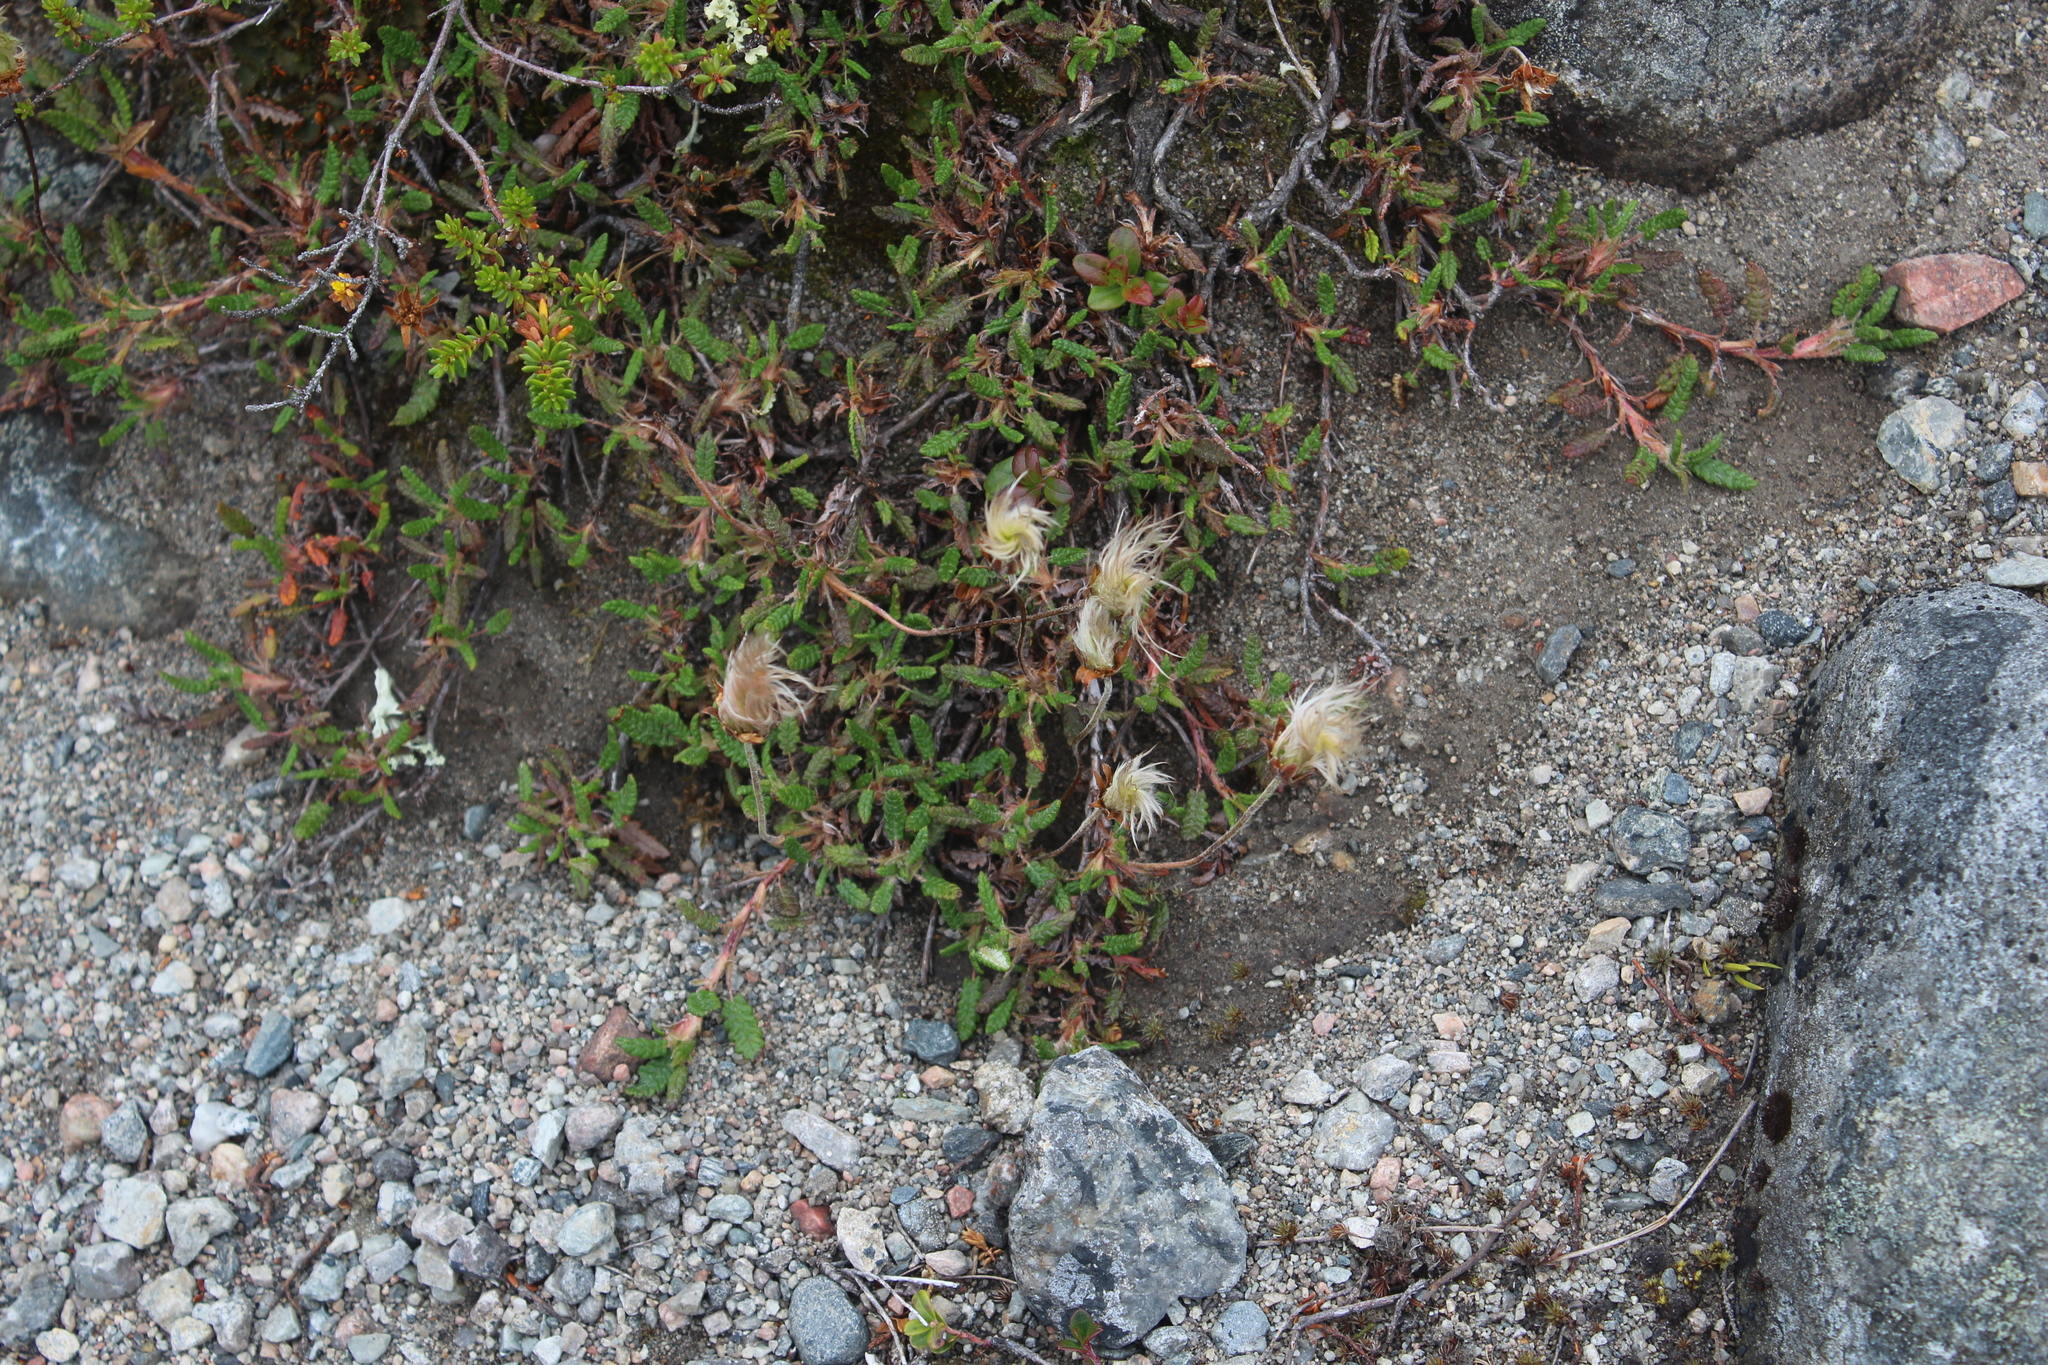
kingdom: Plantae
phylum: Tracheophyta
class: Magnoliopsida
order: Rosales
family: Rosaceae
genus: Dryas
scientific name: Dryas octopetala
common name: Eight-petal mountain-avens
